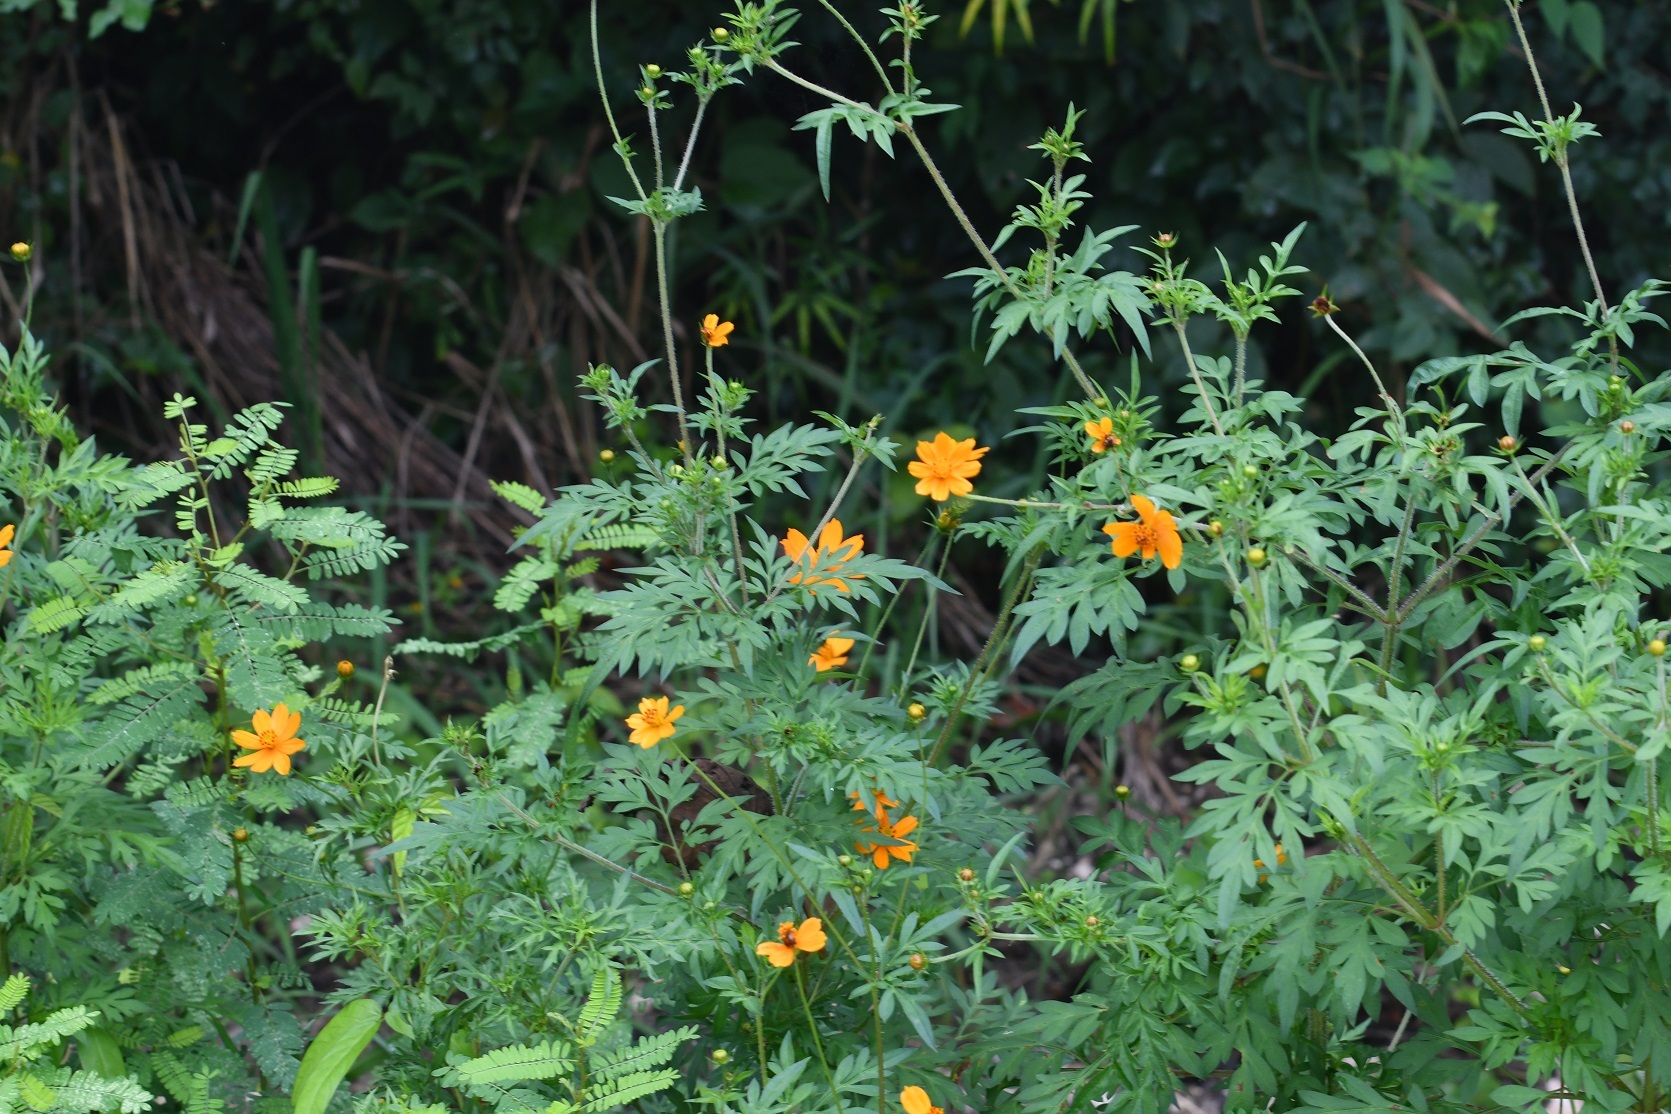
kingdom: Plantae
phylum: Tracheophyta
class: Magnoliopsida
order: Asterales
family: Asteraceae
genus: Cosmos
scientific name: Cosmos sulphureus
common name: Sulphur cosmos
